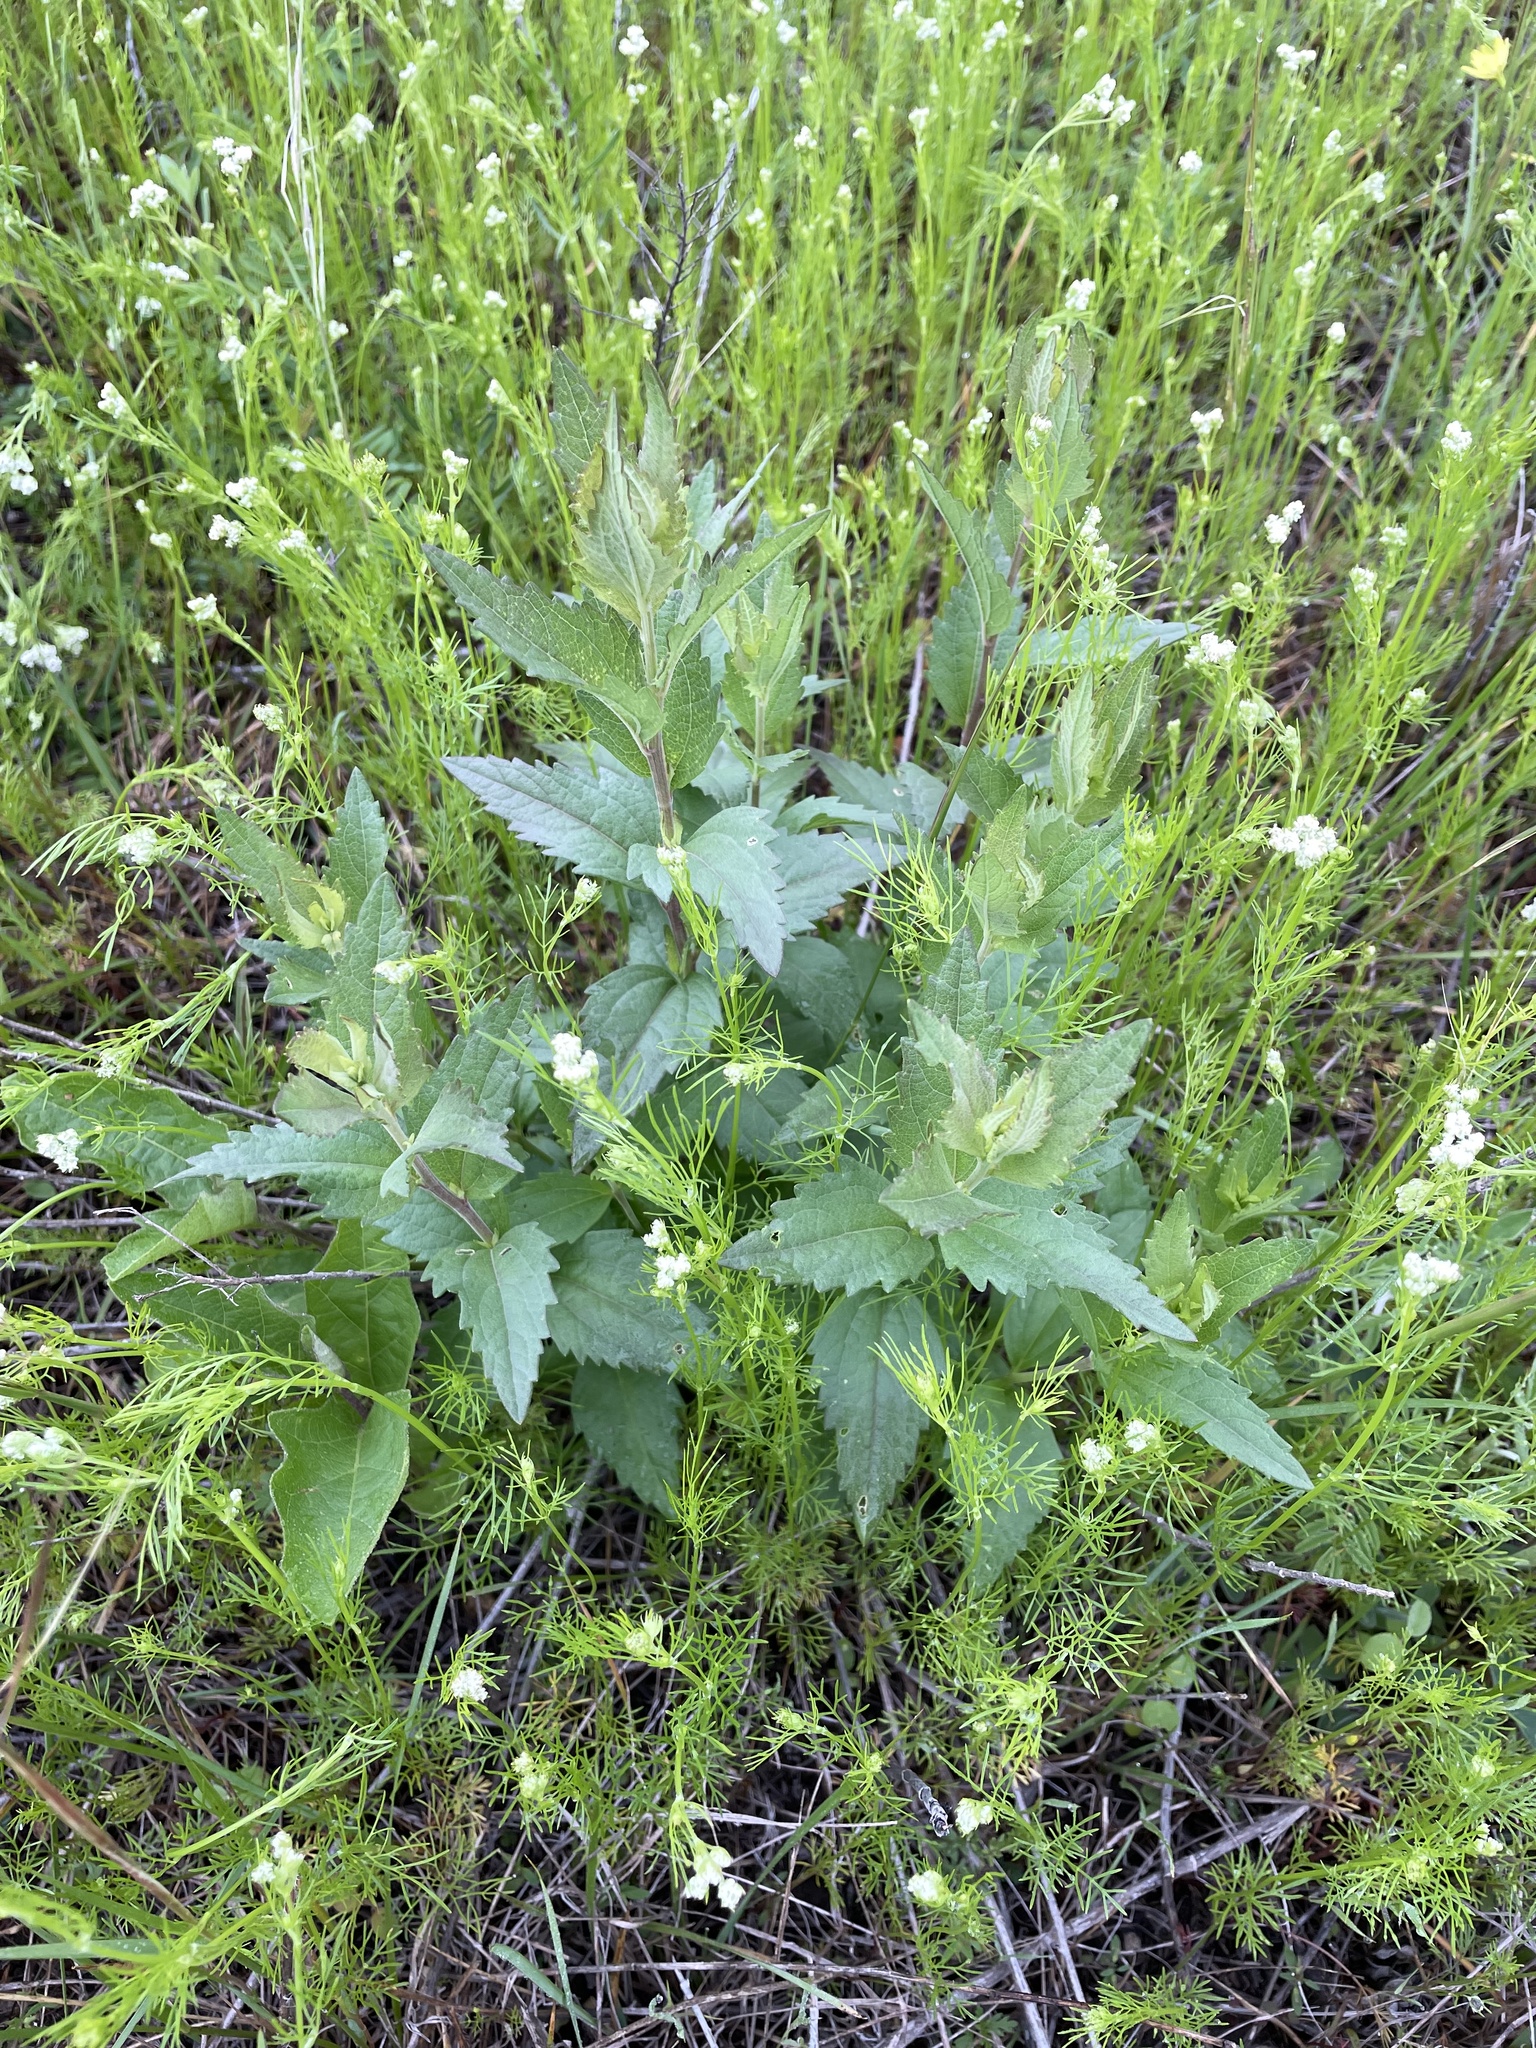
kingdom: Plantae
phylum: Tracheophyta
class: Magnoliopsida
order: Asterales
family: Asteraceae
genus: Brickellia
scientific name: Brickellia eupatorioides
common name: False boneset
